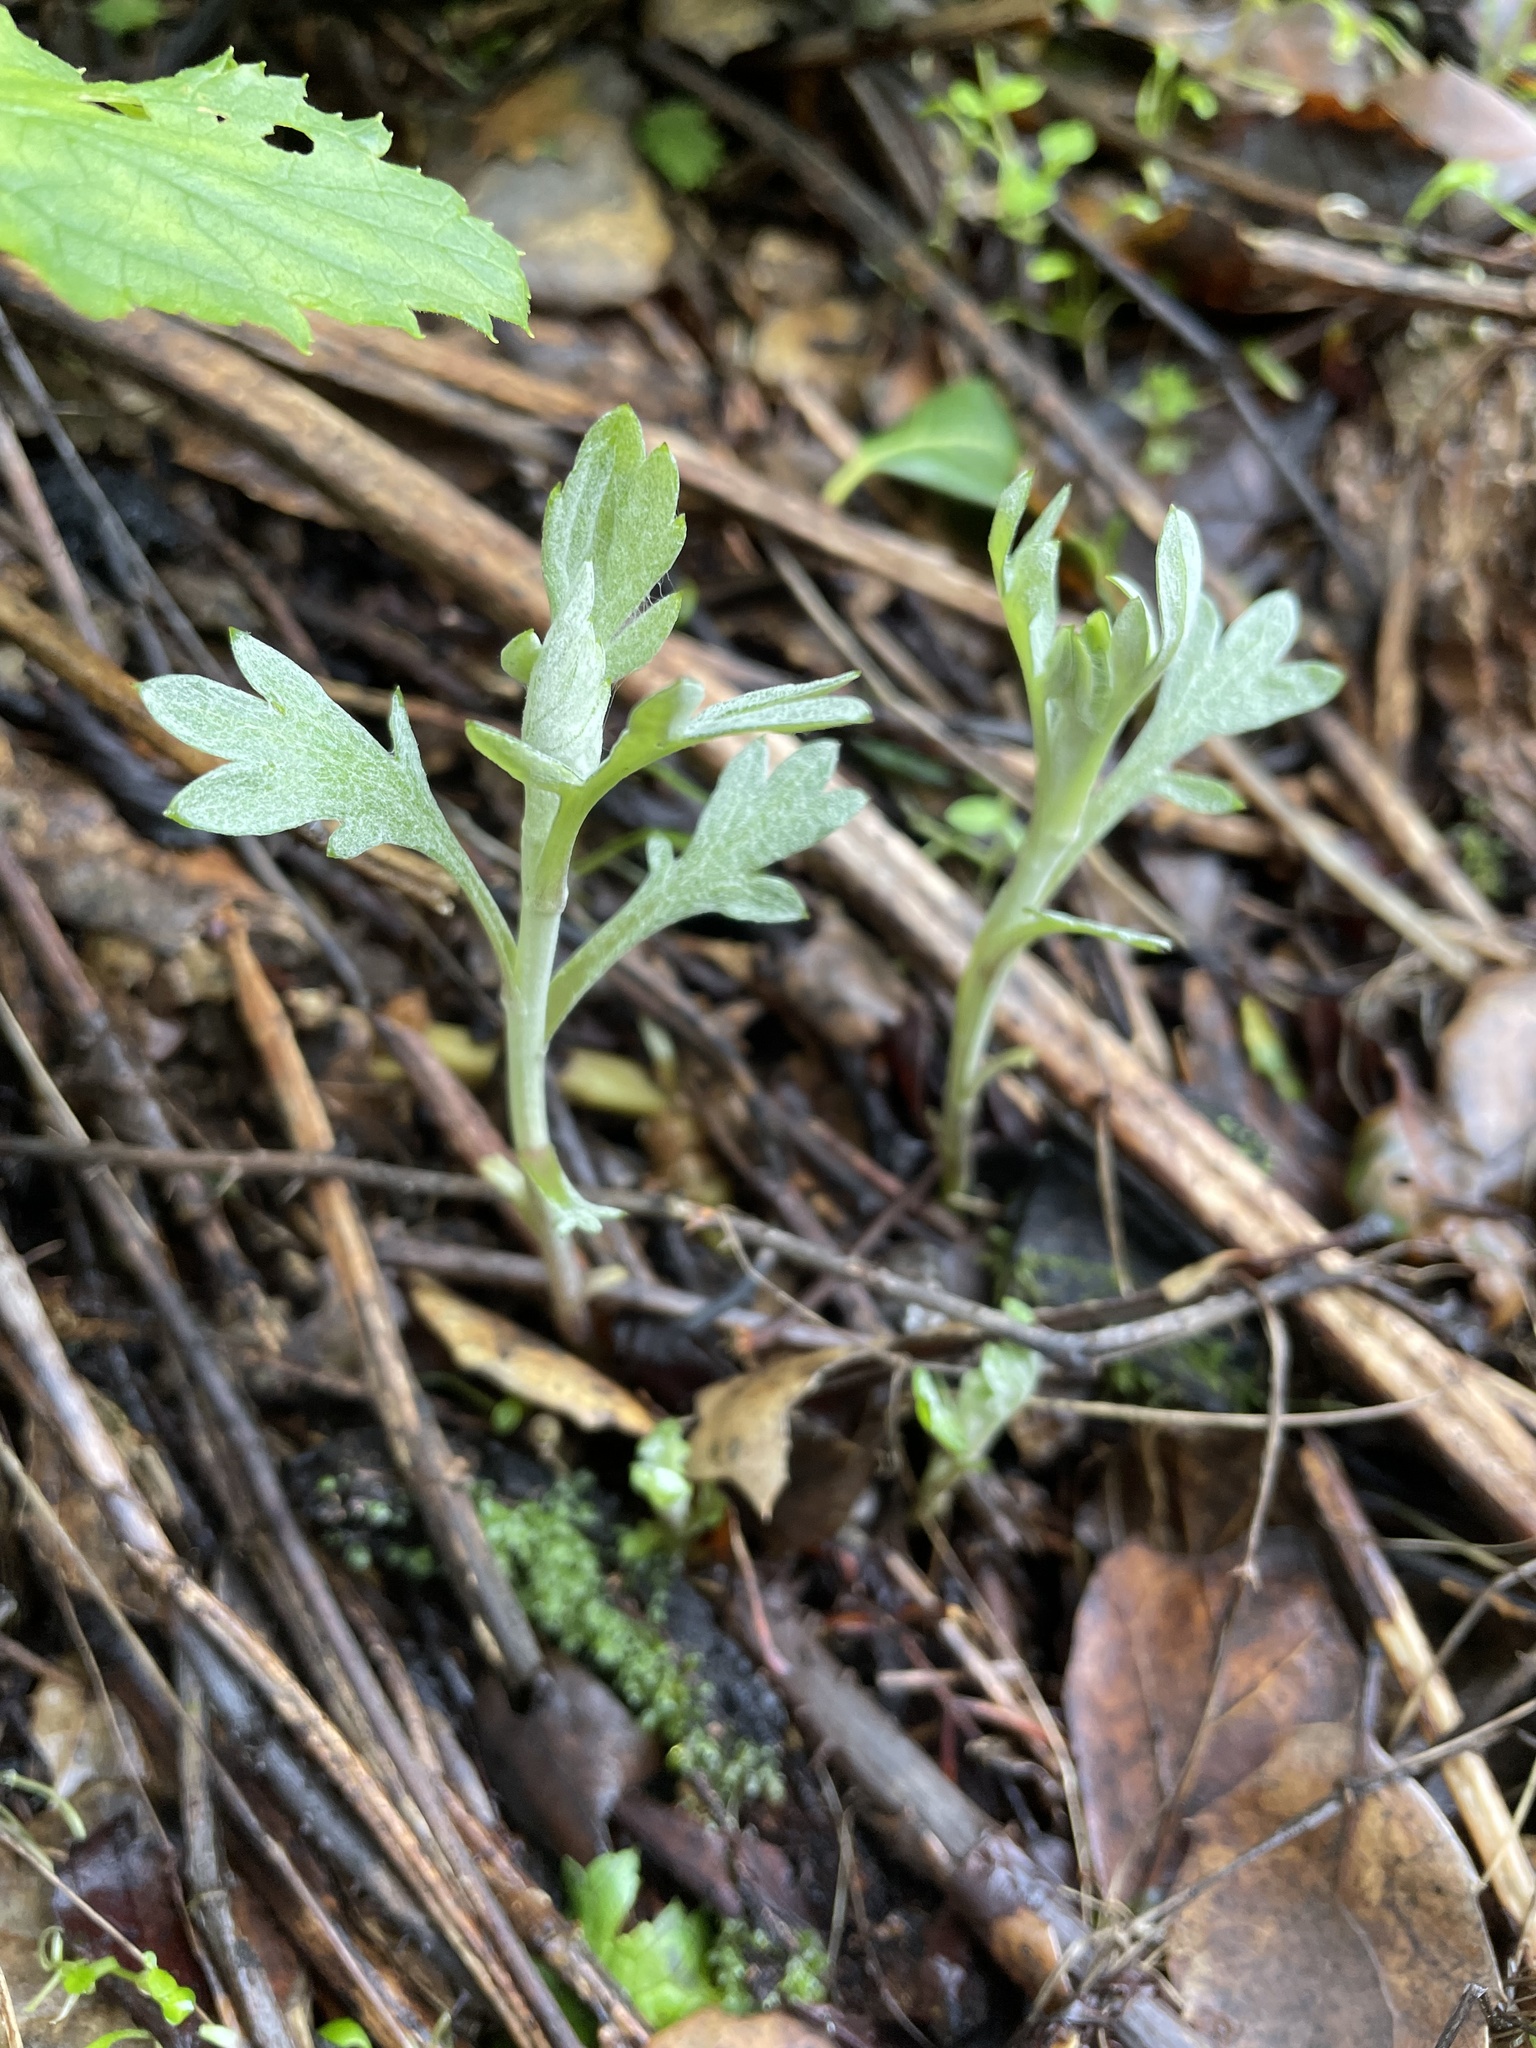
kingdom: Plantae
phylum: Tracheophyta
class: Magnoliopsida
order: Asterales
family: Asteraceae
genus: Artemisia
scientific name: Artemisia douglasiana
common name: Northwest mugwort
